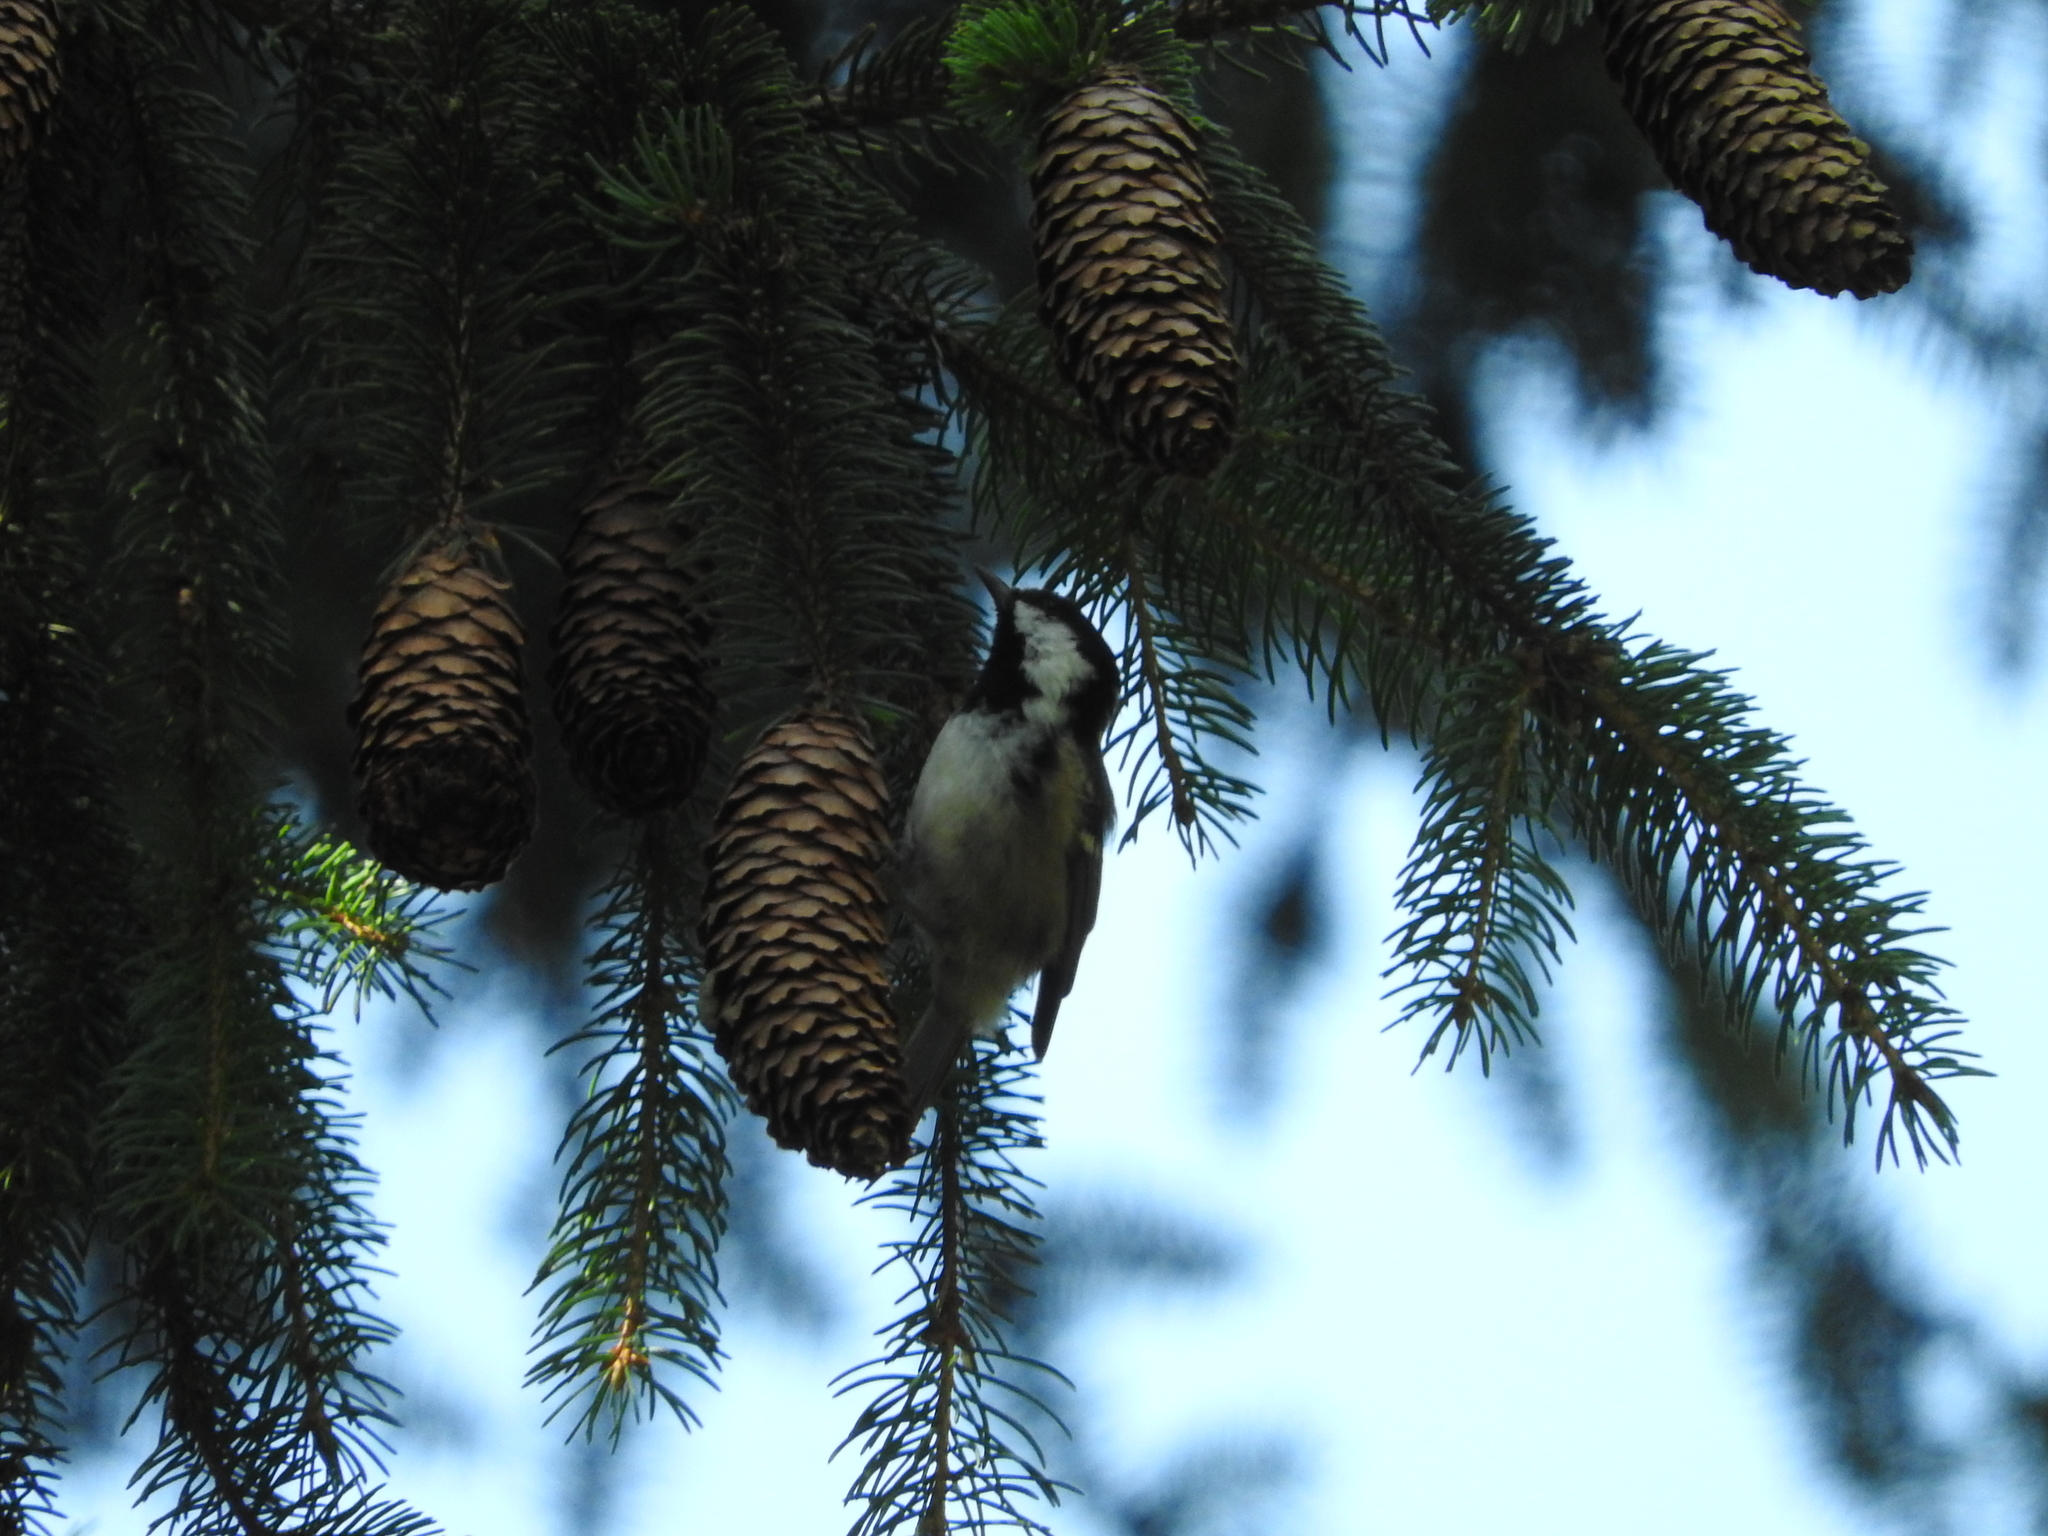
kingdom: Animalia
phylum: Chordata
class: Aves
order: Passeriformes
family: Paridae
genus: Periparus
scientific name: Periparus ater
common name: Coal tit
